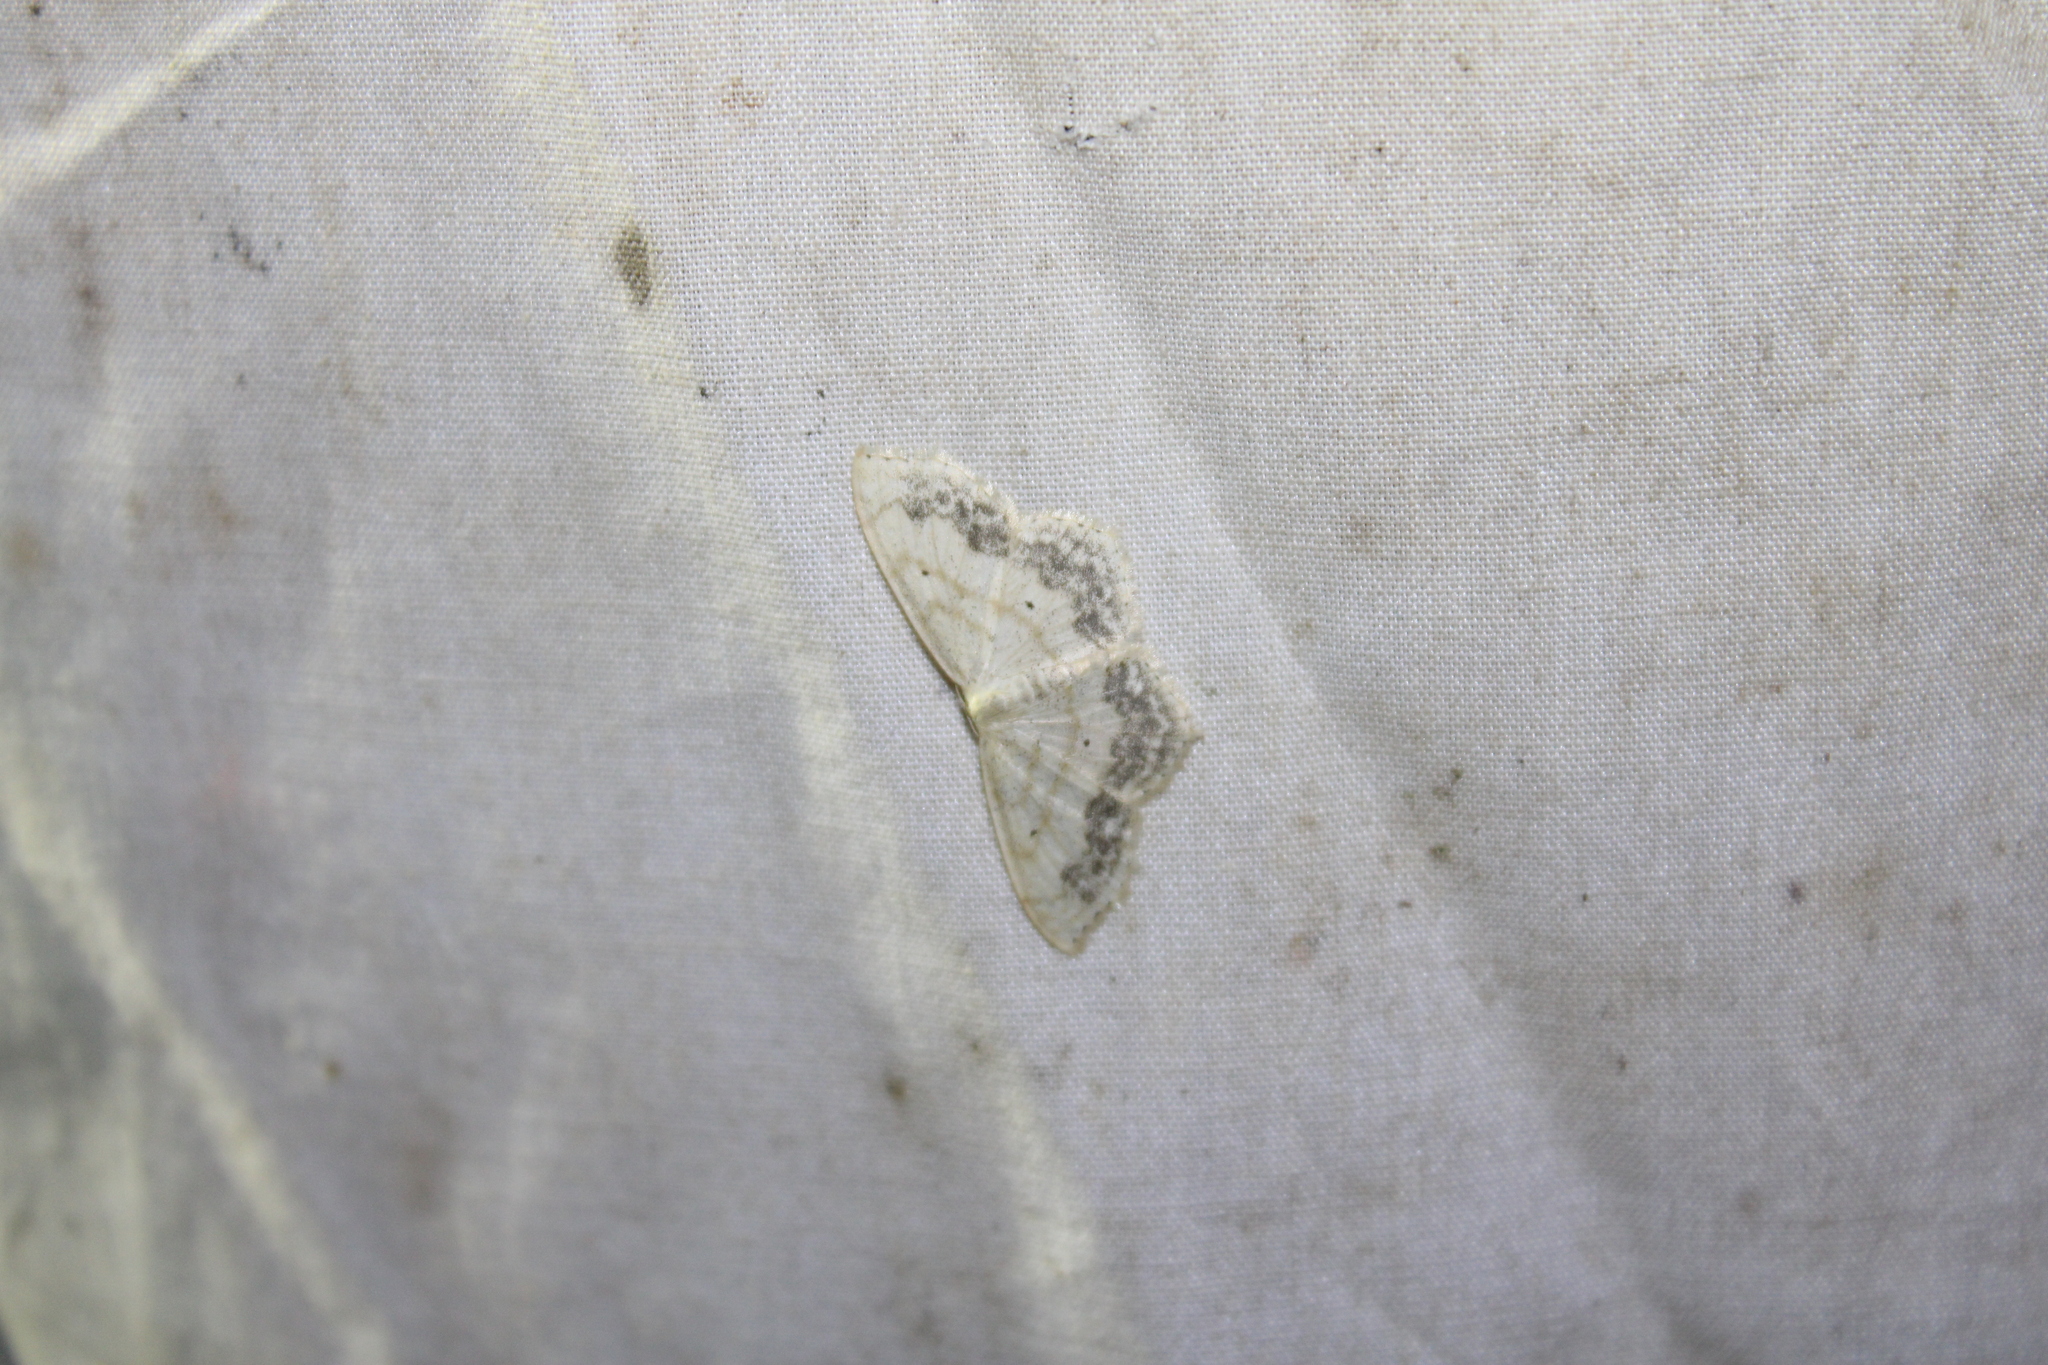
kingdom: Animalia
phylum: Arthropoda
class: Insecta
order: Lepidoptera
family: Geometridae
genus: Scopula
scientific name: Scopula limboundata
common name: Large lace border
